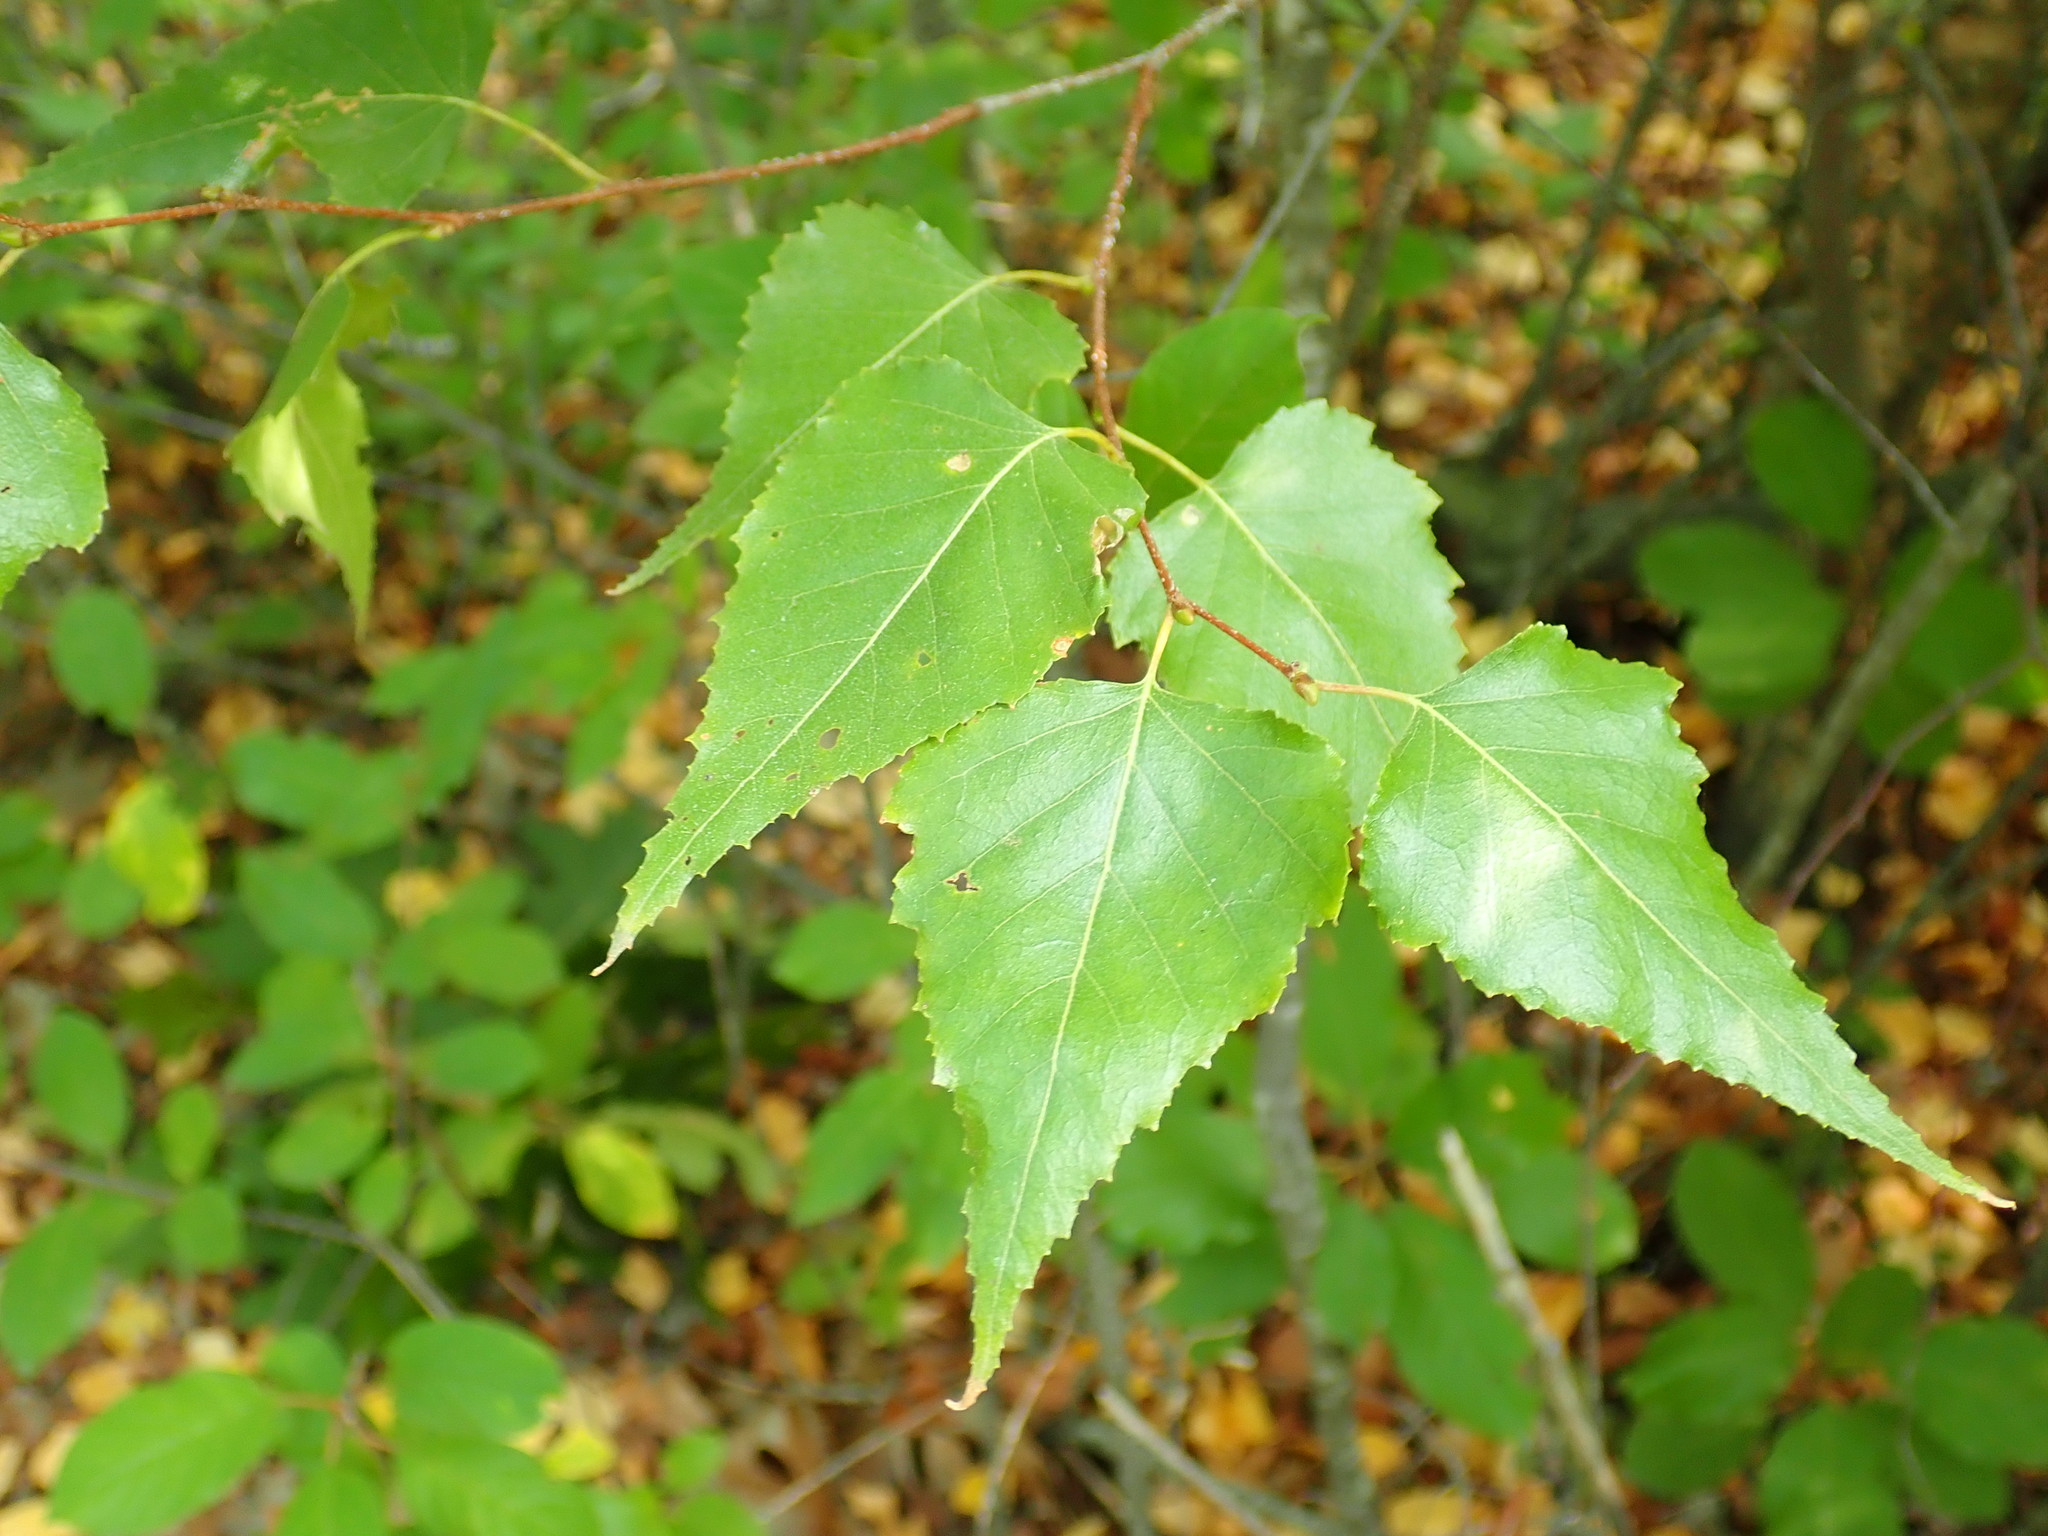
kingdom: Plantae
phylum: Tracheophyta
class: Magnoliopsida
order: Fagales
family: Betulaceae
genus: Betula
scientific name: Betula populifolia
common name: Fire birch
